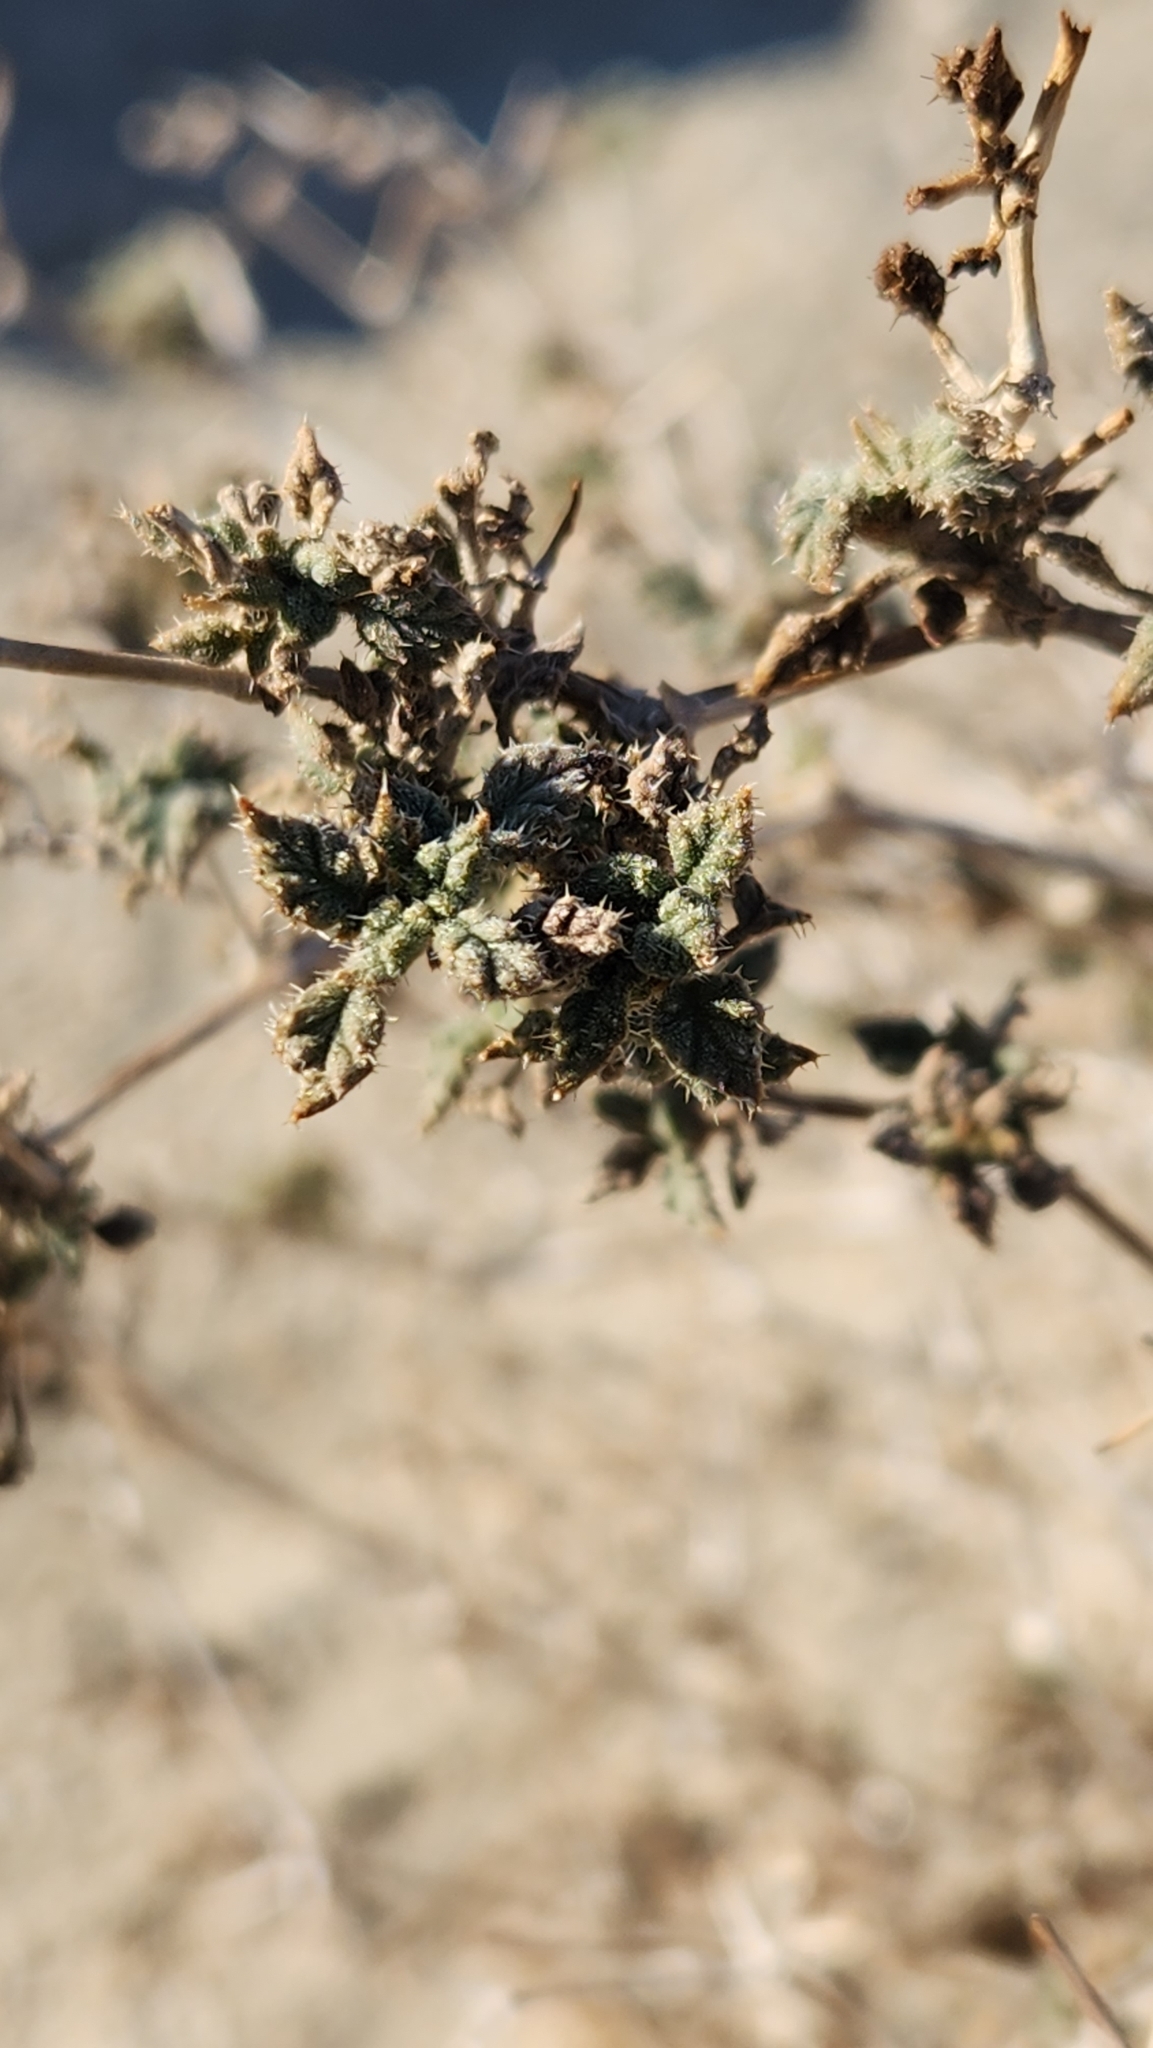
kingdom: Plantae
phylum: Tracheophyta
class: Magnoliopsida
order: Boraginales
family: Ehretiaceae
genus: Tiquilia
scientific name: Tiquilia palmeri
